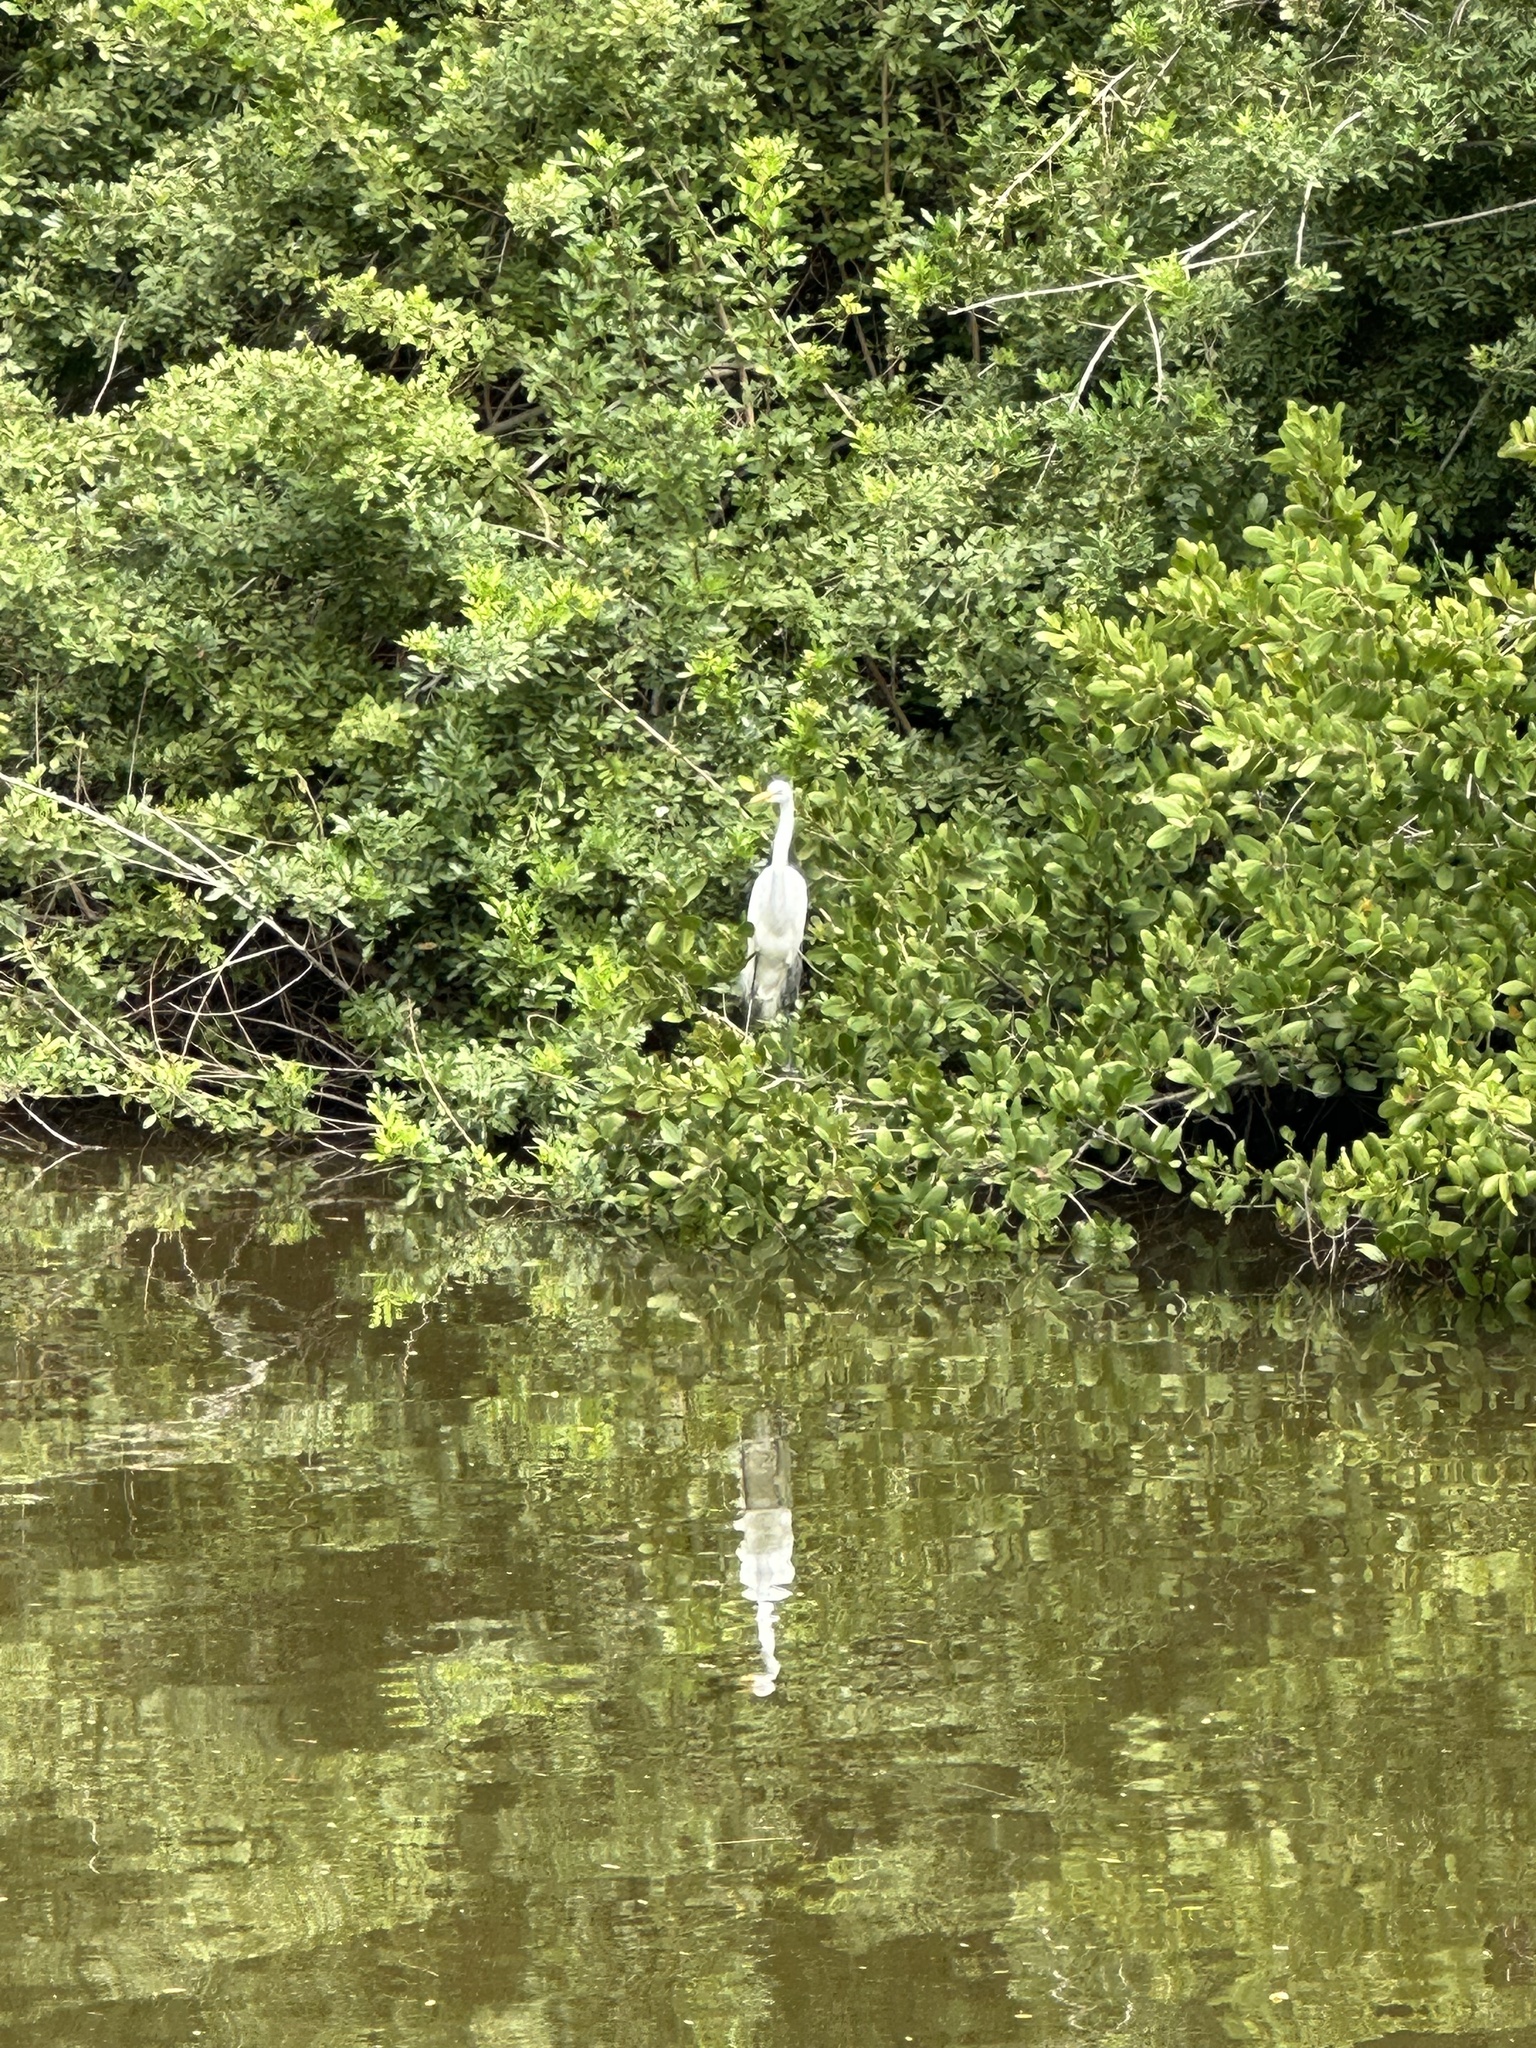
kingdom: Animalia
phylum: Chordata
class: Aves
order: Pelecaniformes
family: Ardeidae
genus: Ardea
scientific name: Ardea alba
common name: Great egret
